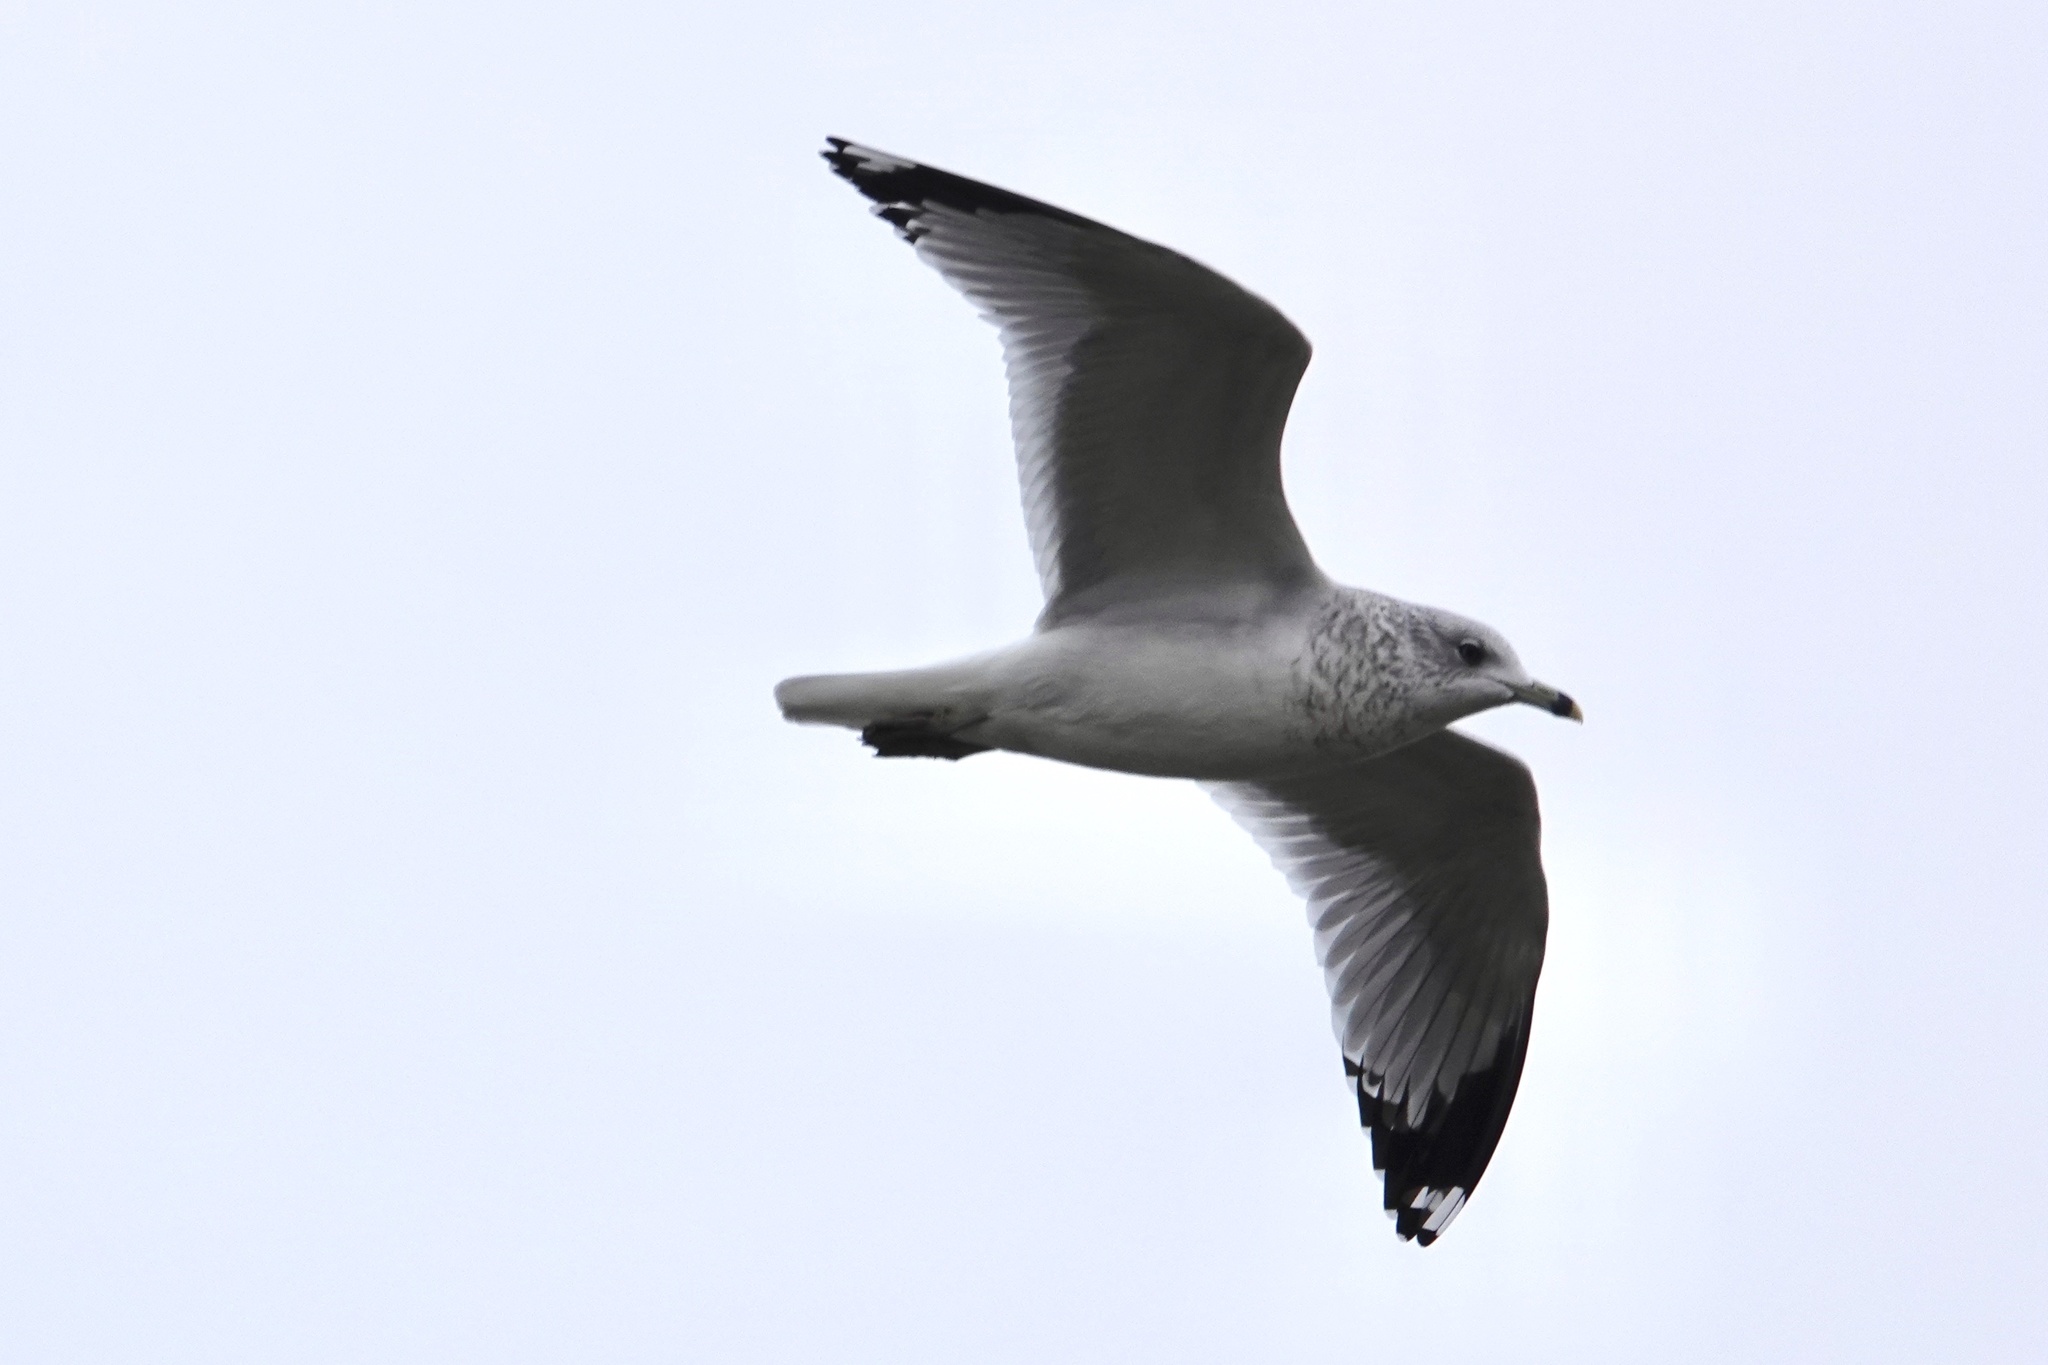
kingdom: Animalia
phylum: Chordata
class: Aves
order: Charadriiformes
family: Laridae
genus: Larus
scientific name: Larus delawarensis
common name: Ring-billed gull
